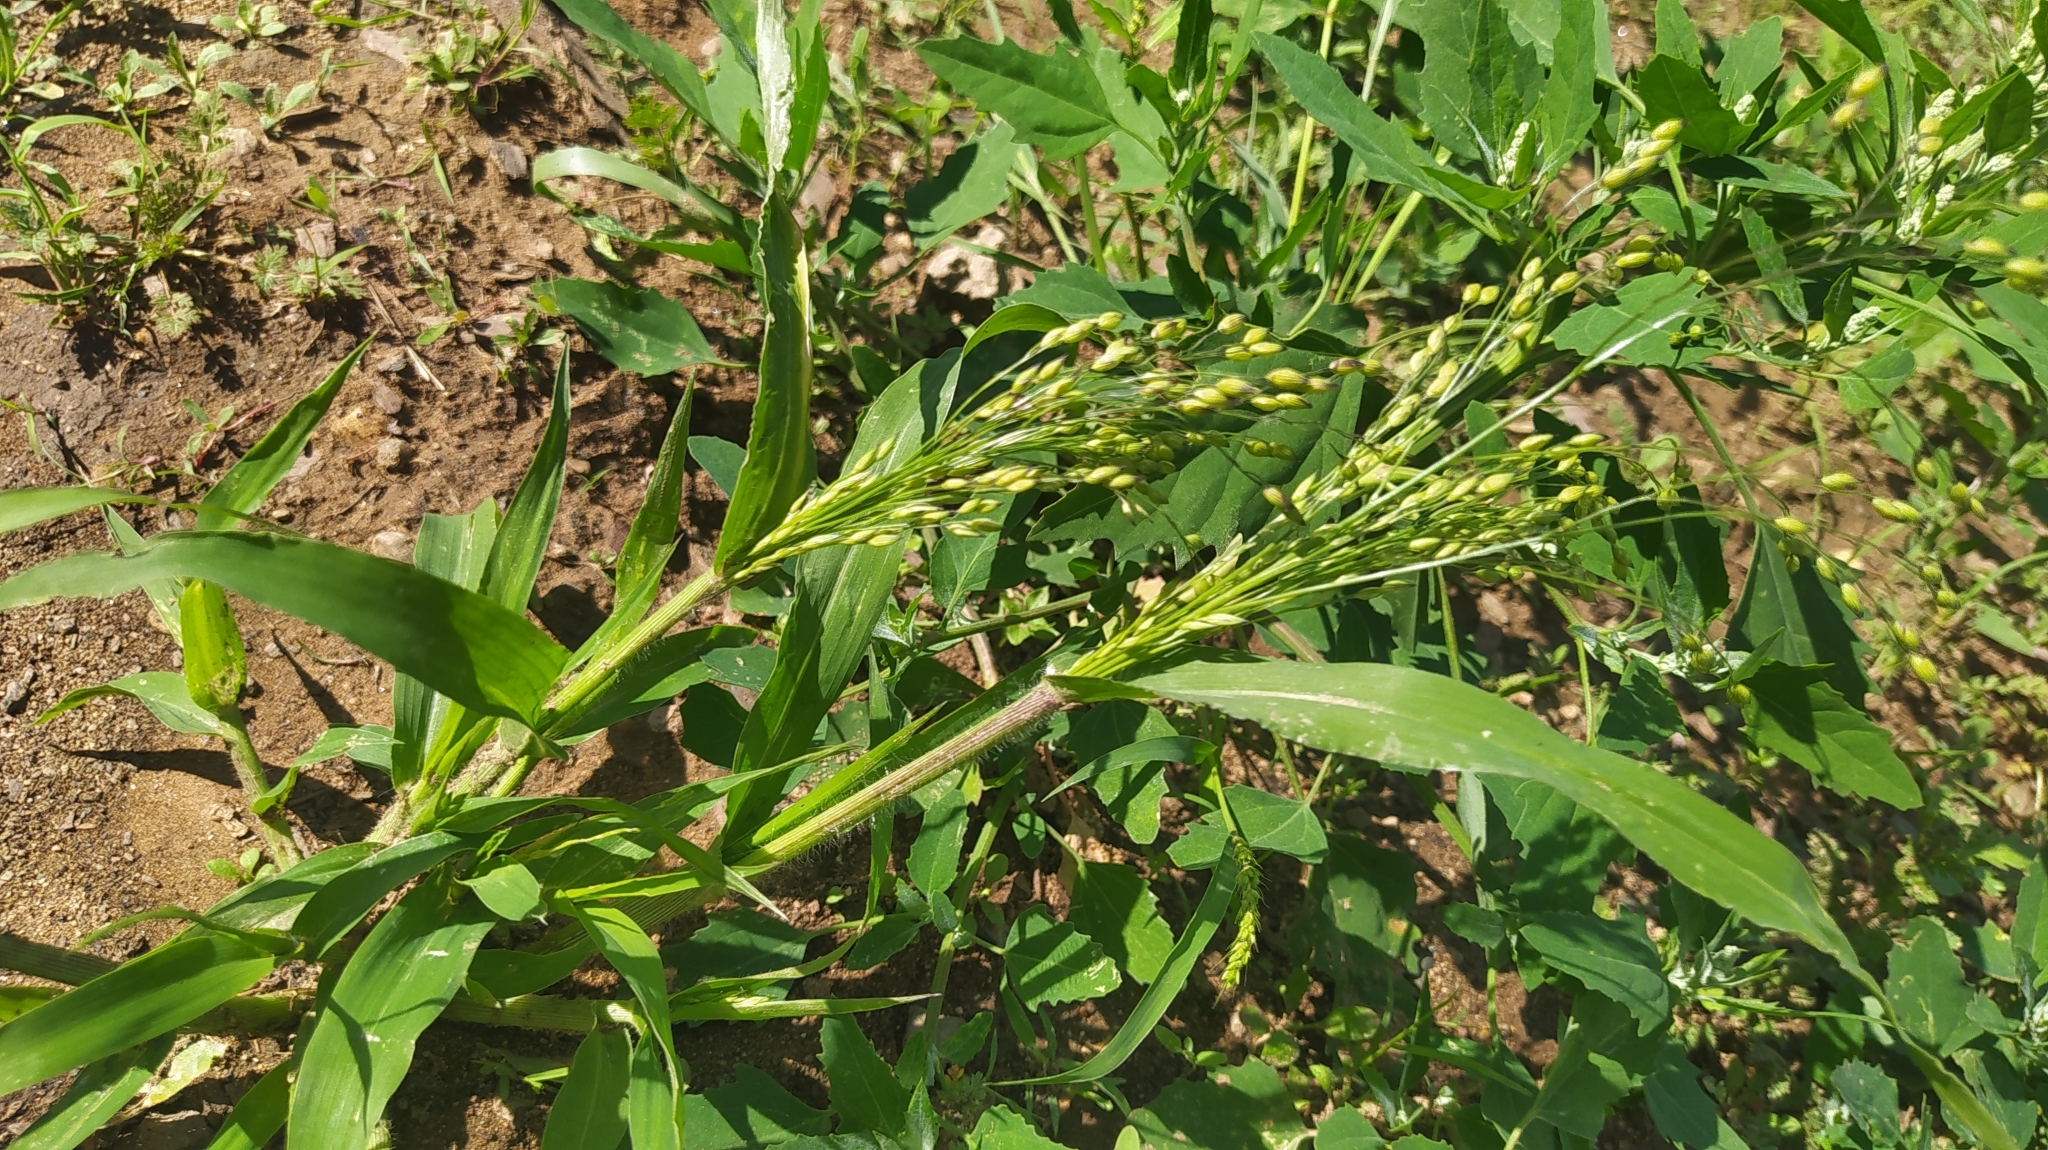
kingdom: Plantae
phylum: Tracheophyta
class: Liliopsida
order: Poales
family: Poaceae
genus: Panicum
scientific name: Panicum miliaceum
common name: Common millet
